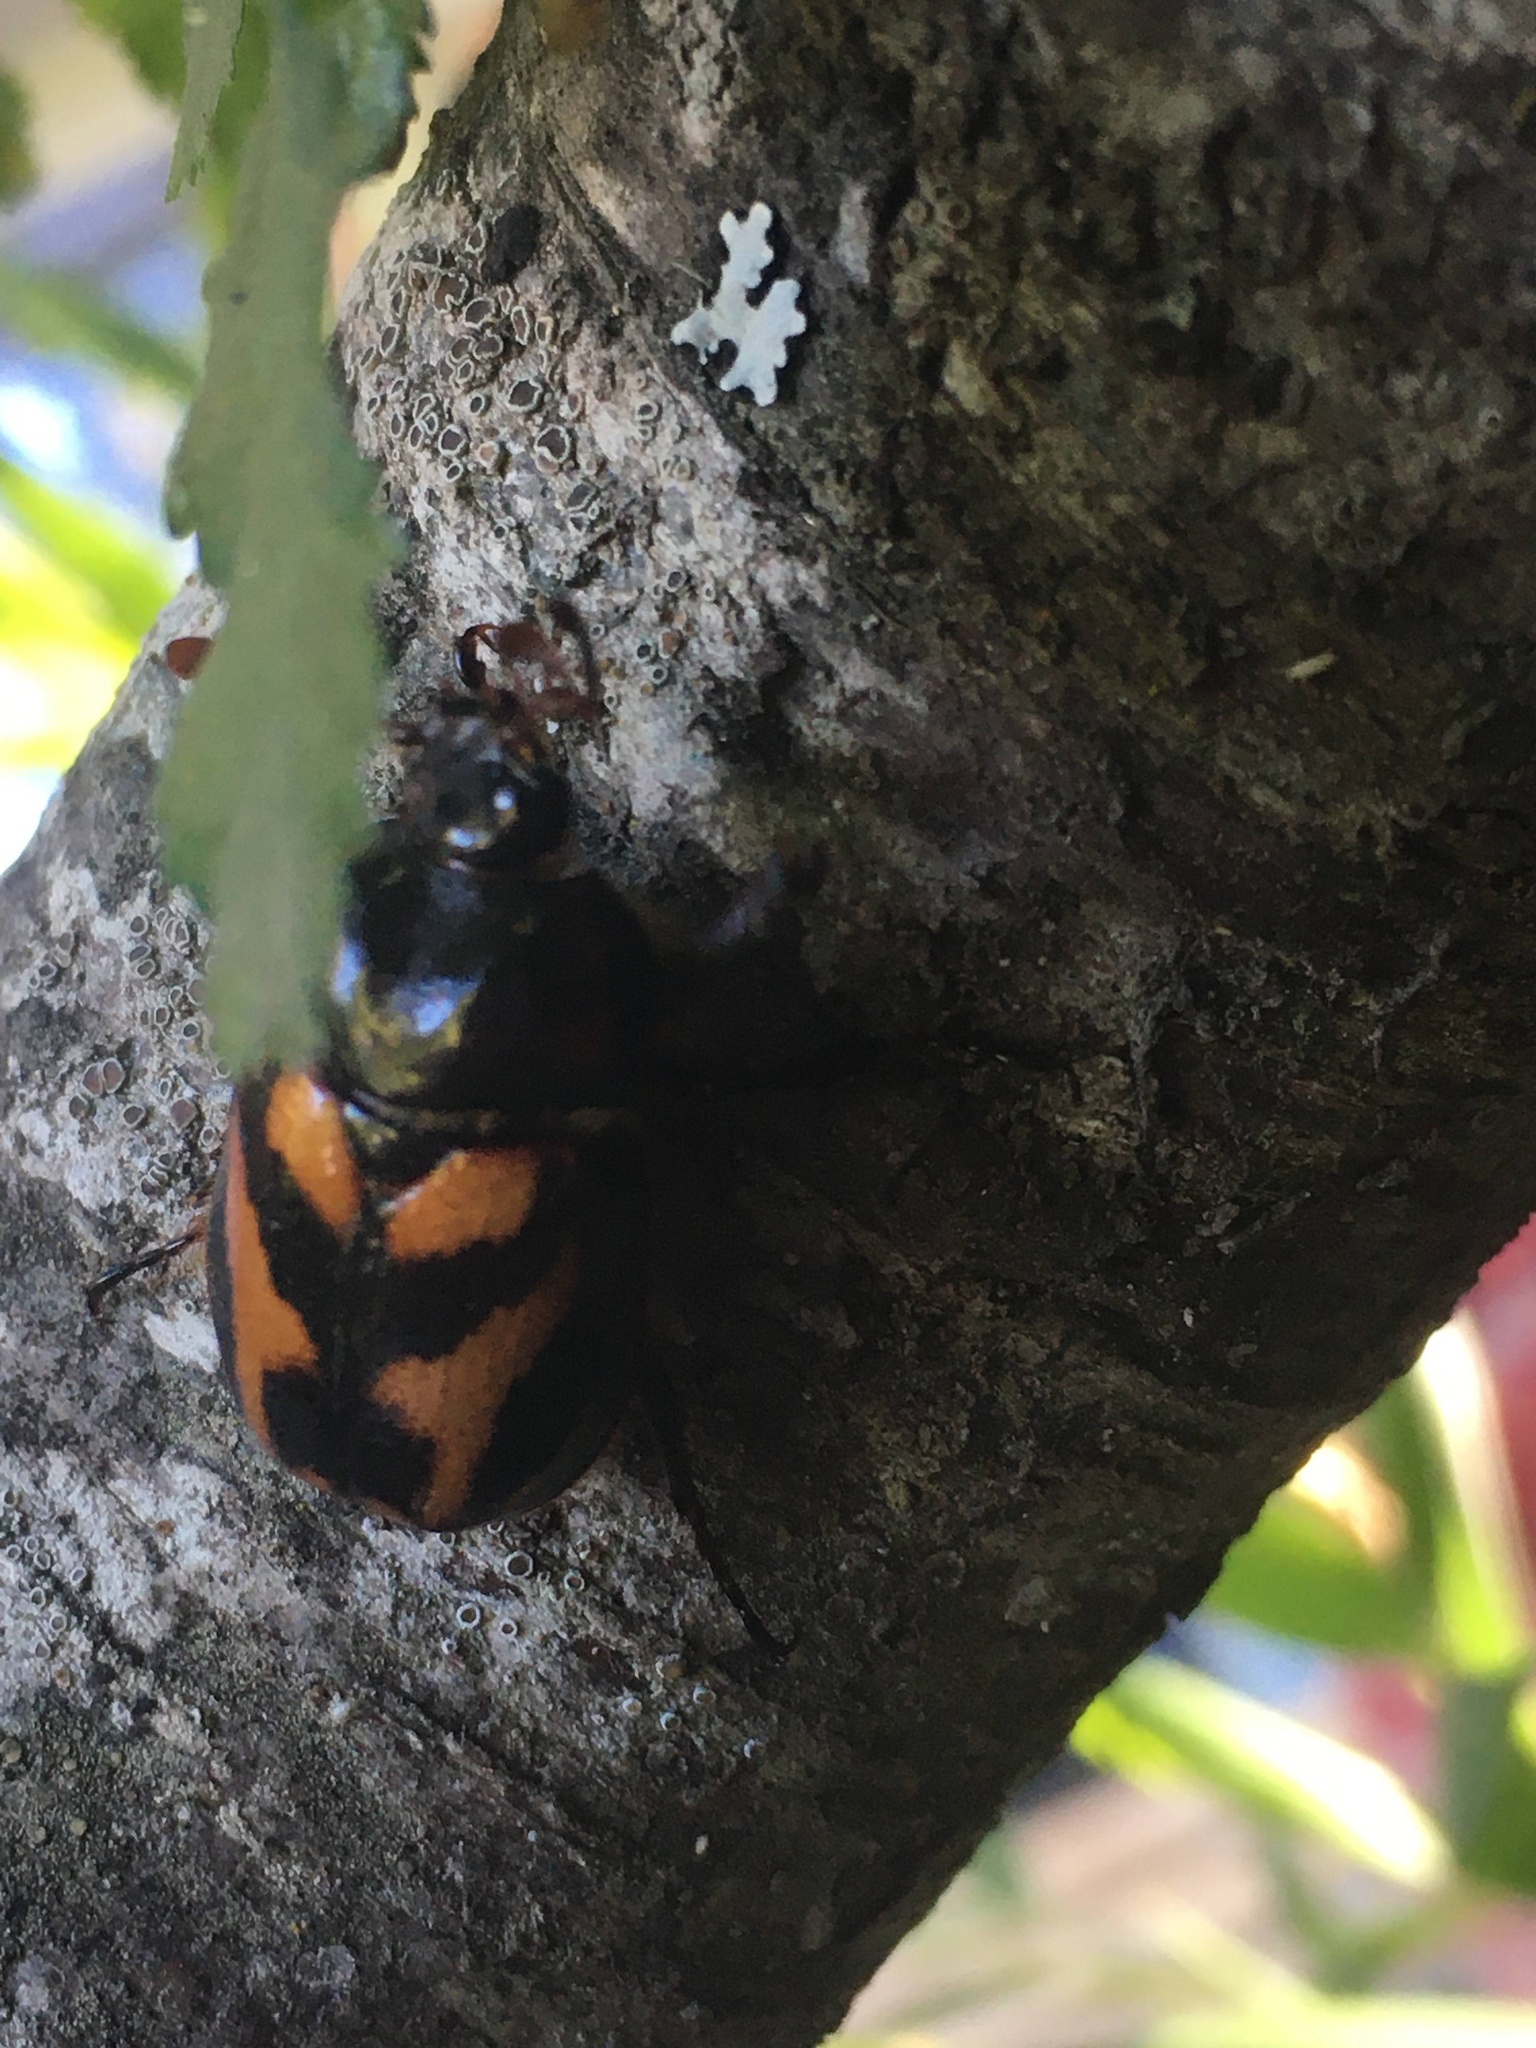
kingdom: Animalia
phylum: Arthropoda
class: Insecta
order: Coleoptera
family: Scarabaeidae
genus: Oryctomorphus
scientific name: Oryctomorphus bimaculatus
